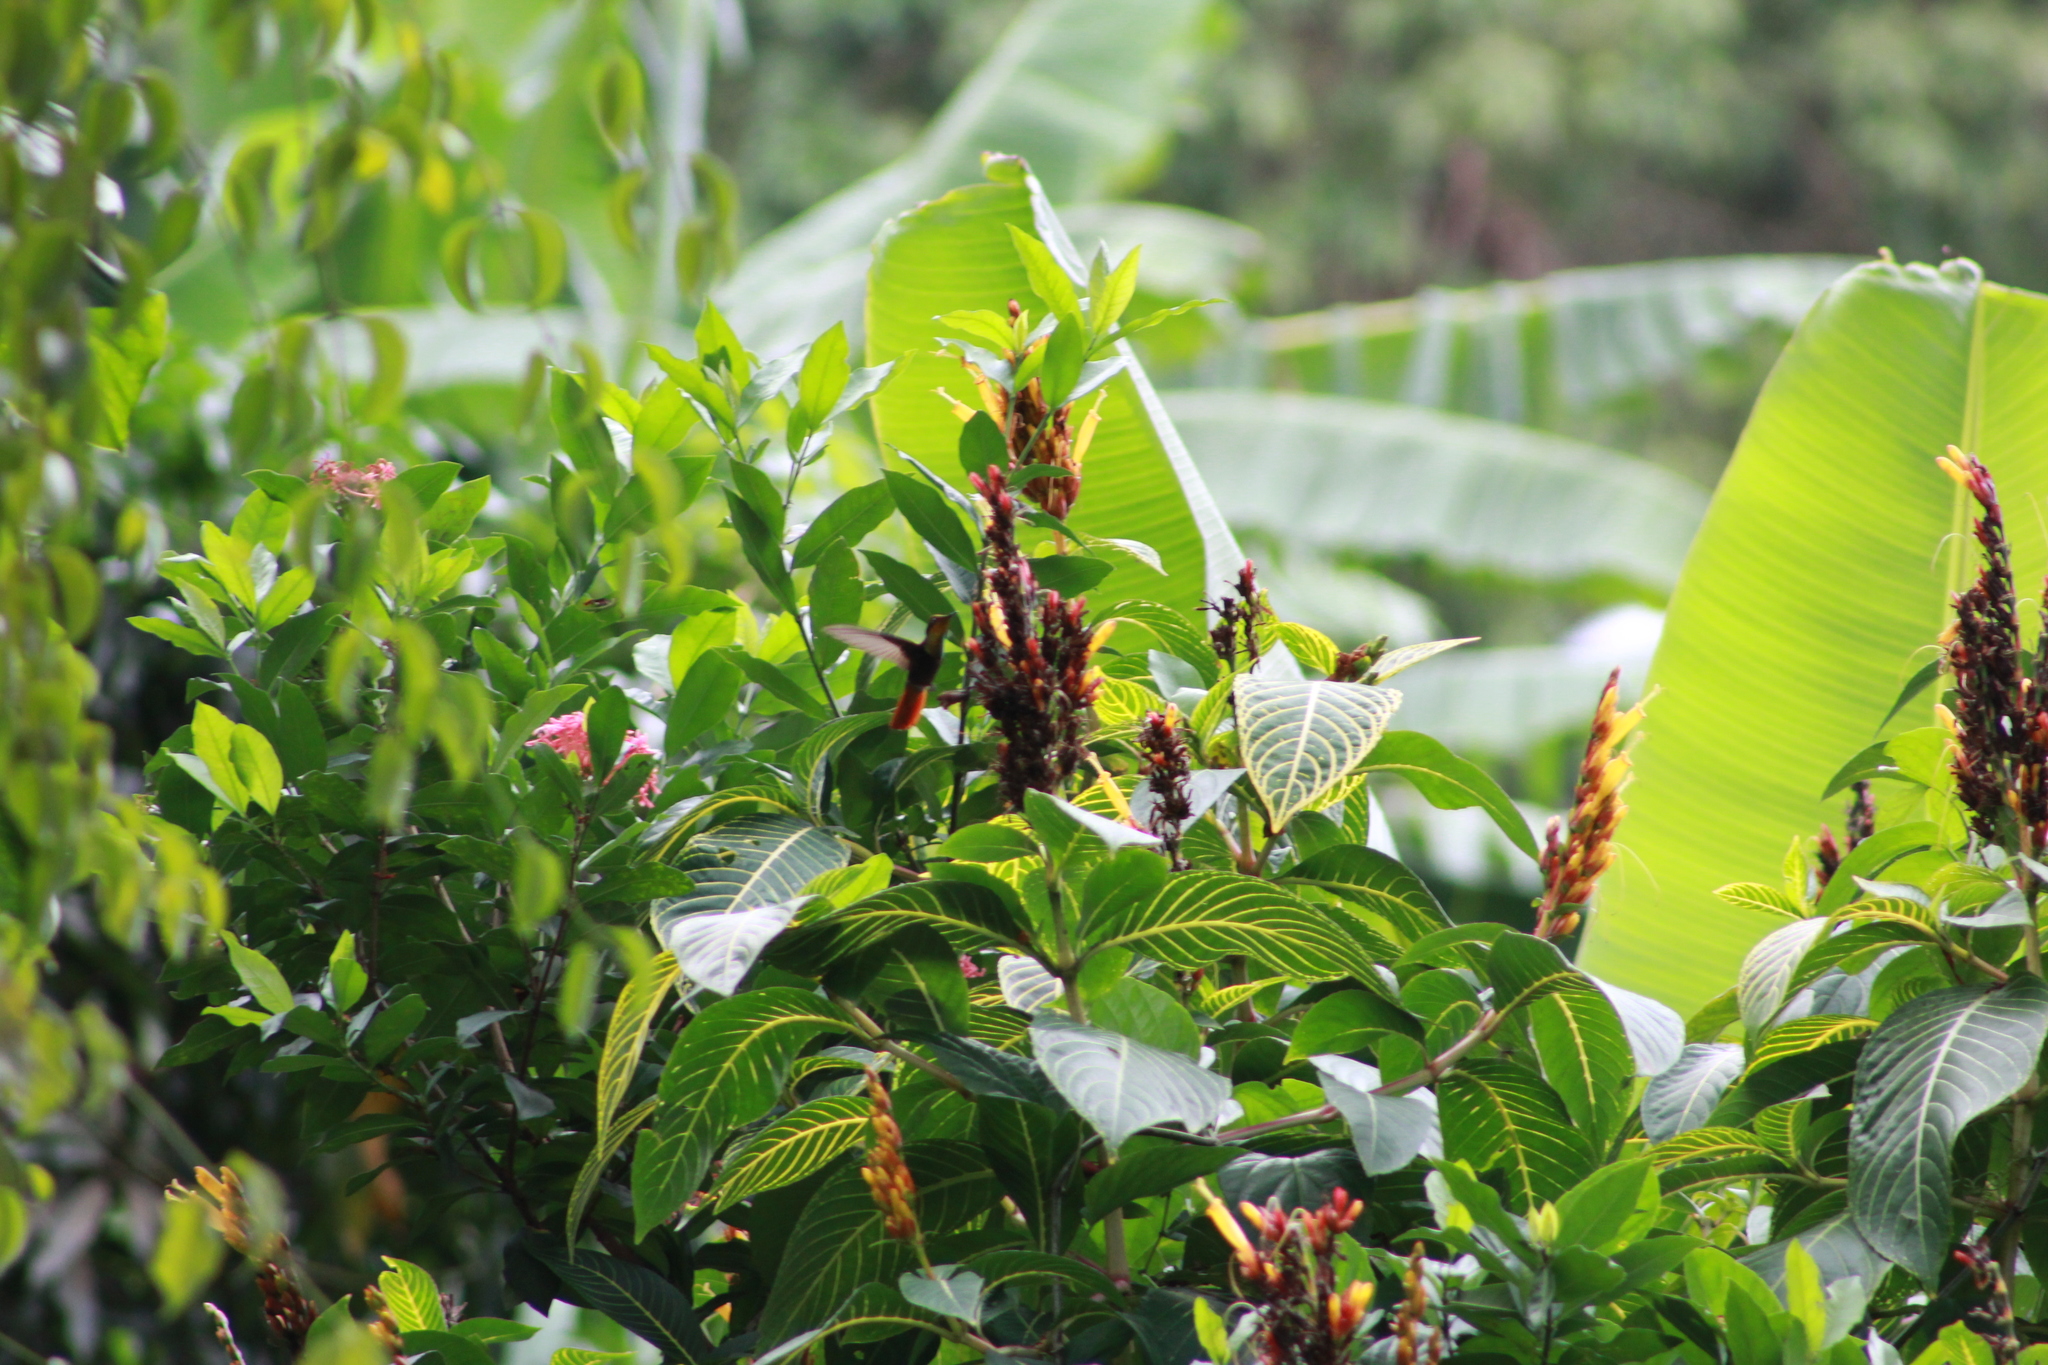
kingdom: Animalia
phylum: Chordata
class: Aves
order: Apodiformes
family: Trochilidae
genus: Chrysolampis
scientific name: Chrysolampis mosquitus
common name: Ruby-topaz hummingbird
